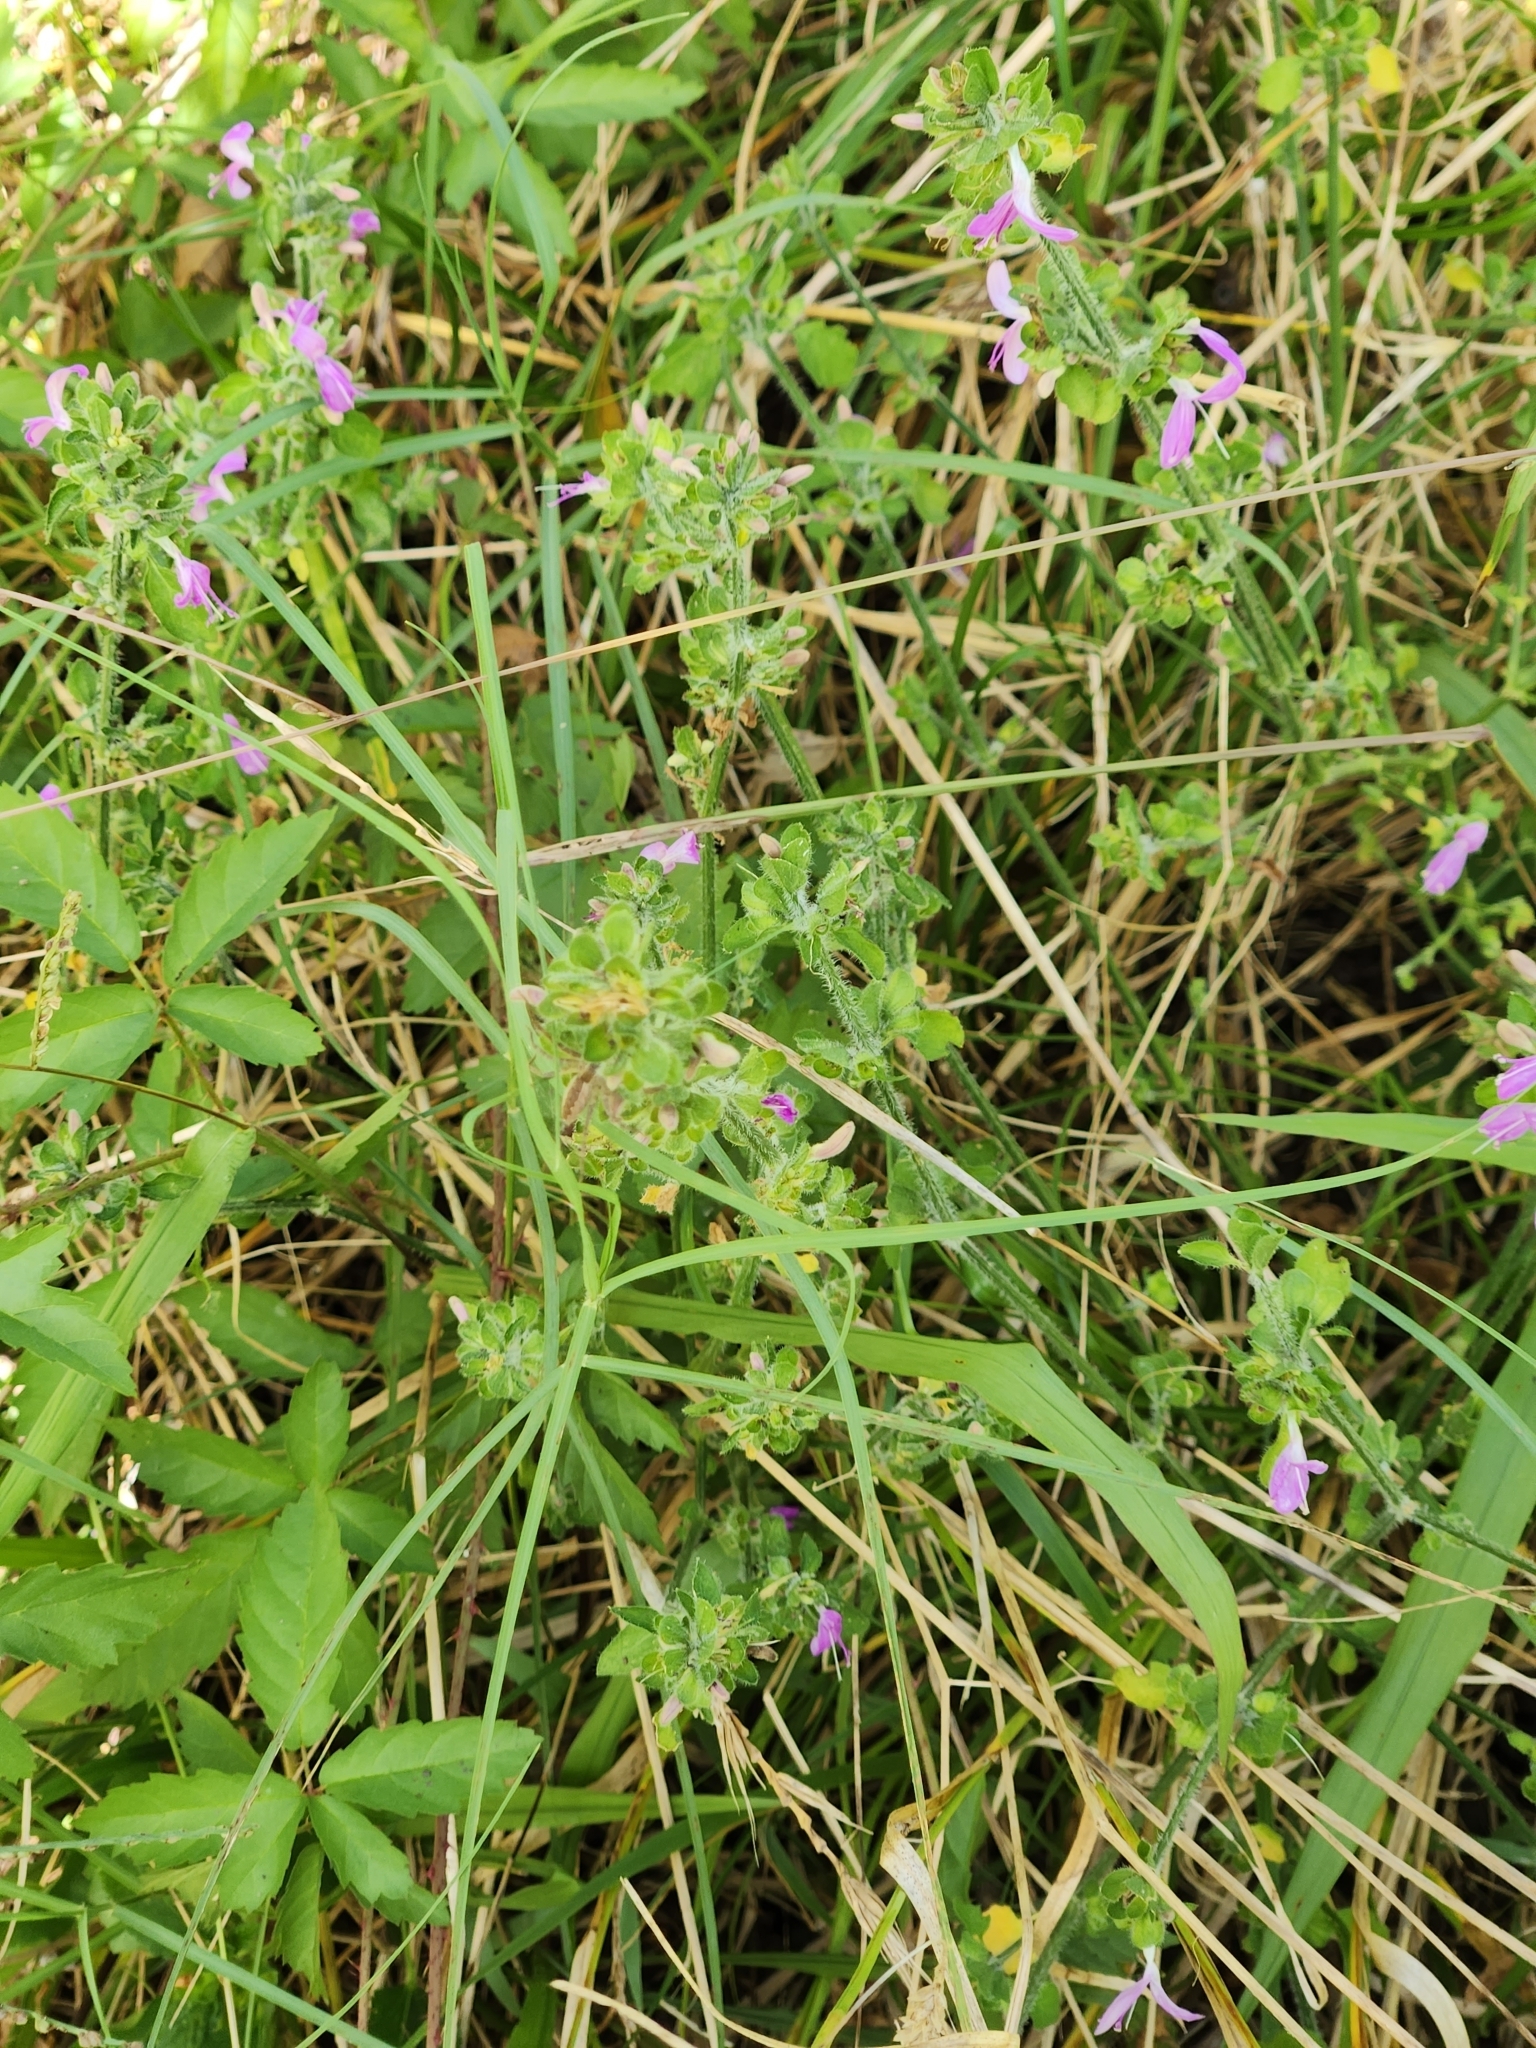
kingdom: Plantae
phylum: Tracheophyta
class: Magnoliopsida
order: Lamiales
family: Acanthaceae
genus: Dicliptera
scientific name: Dicliptera brachiata
